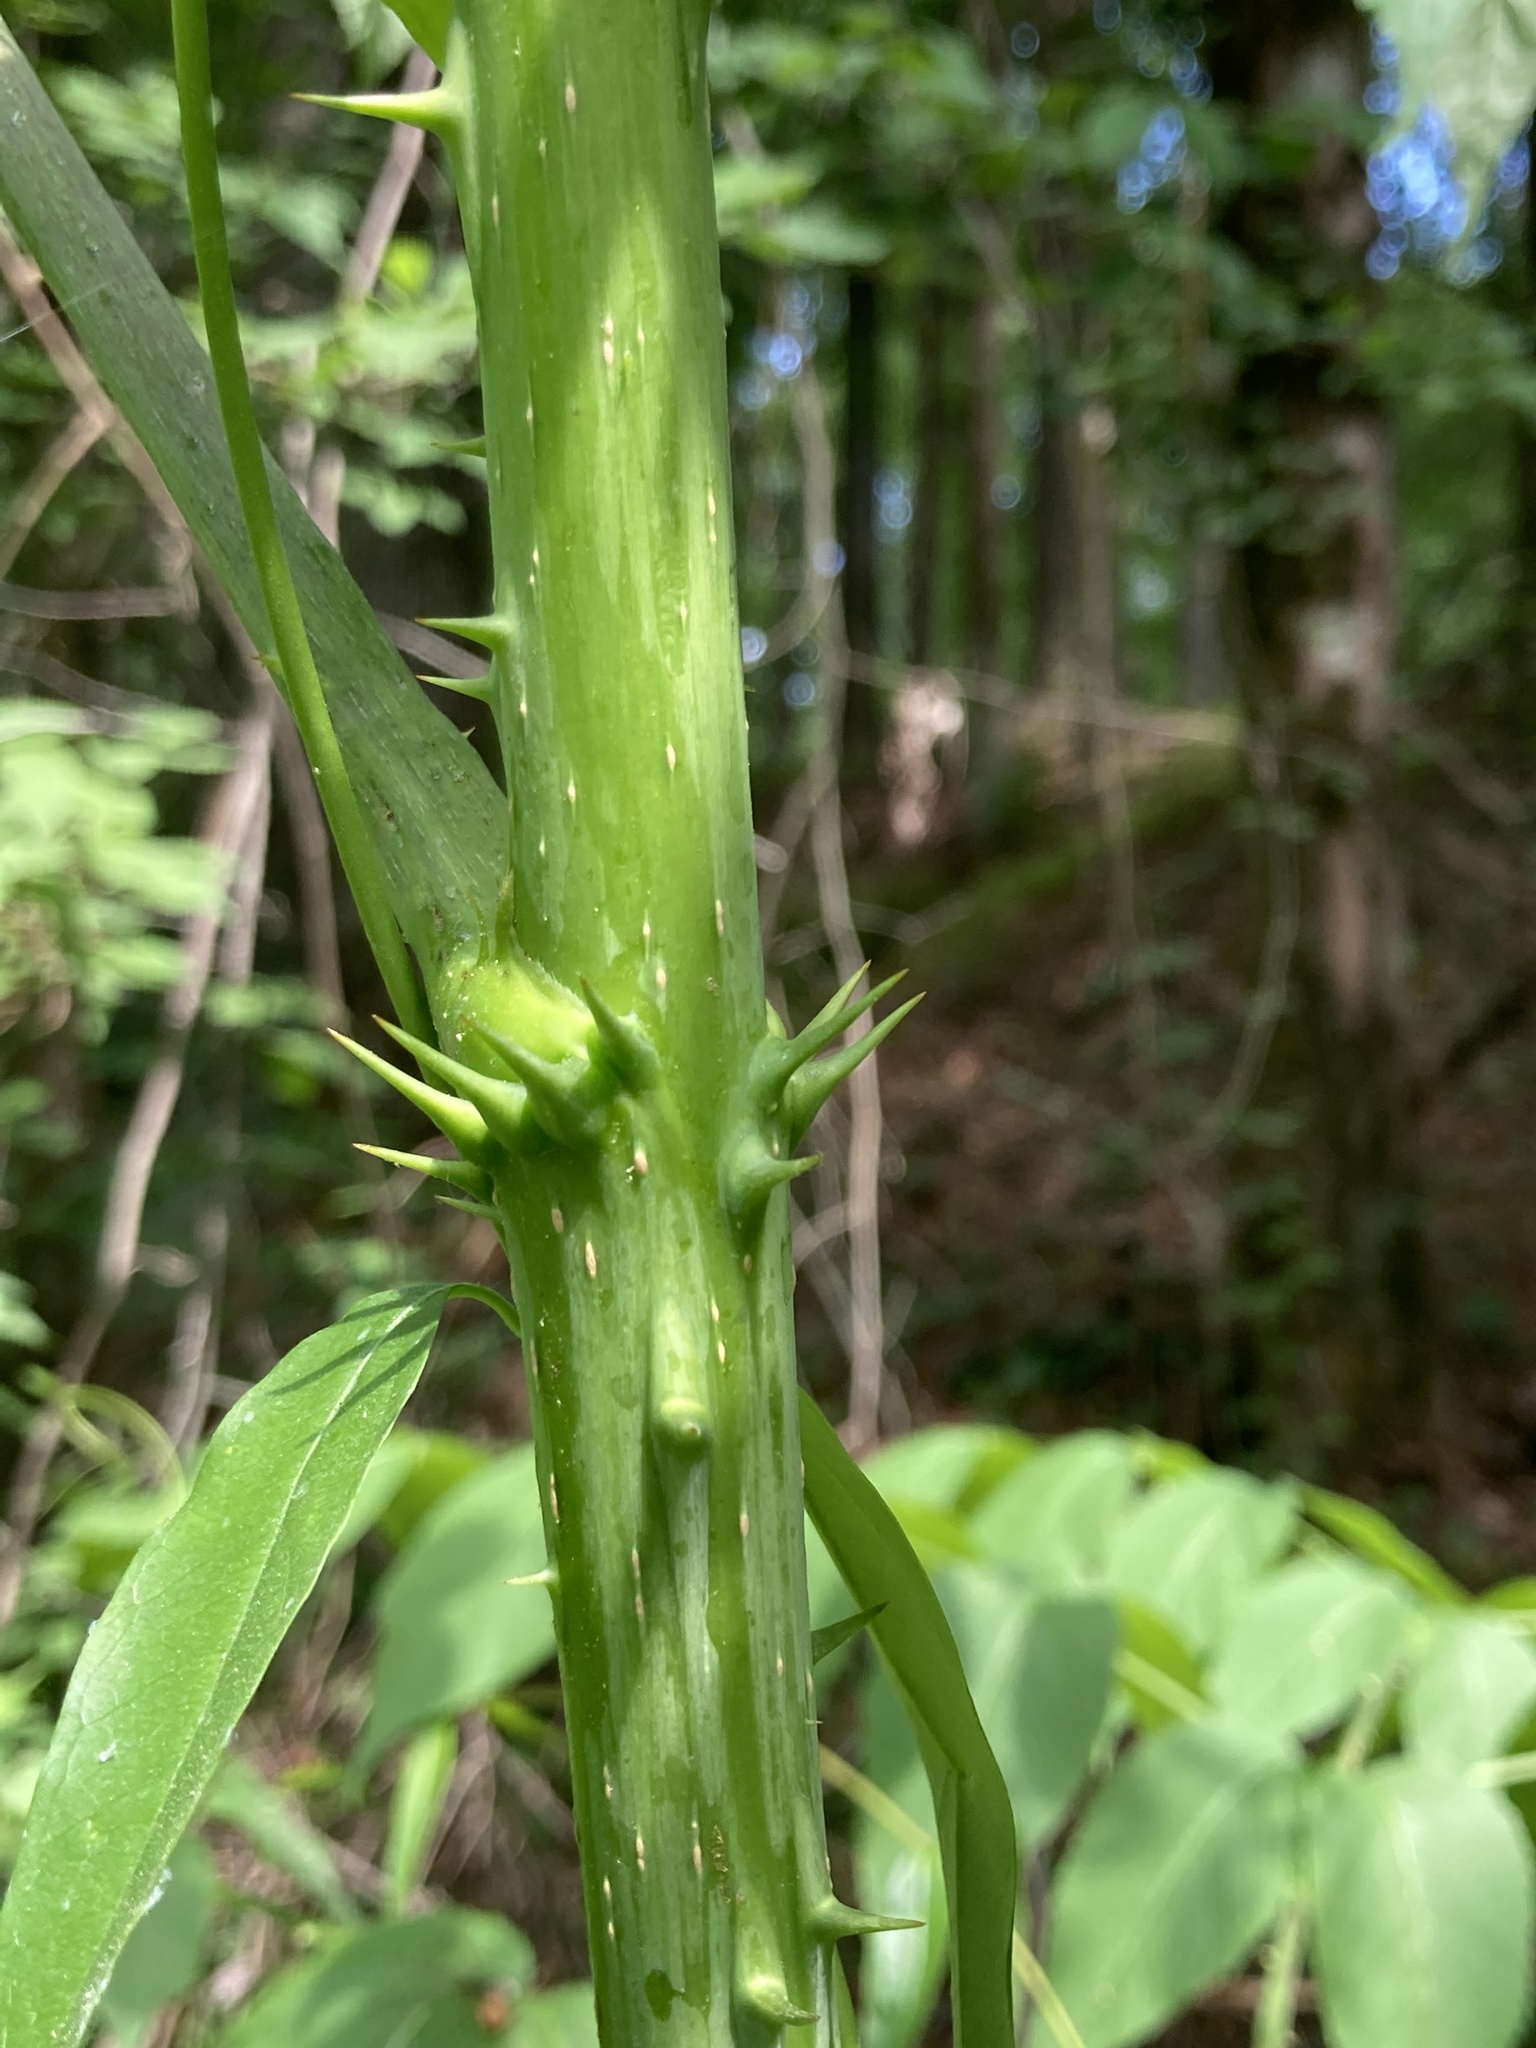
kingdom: Plantae
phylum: Tracheophyta
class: Magnoliopsida
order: Apiales
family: Araliaceae
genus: Aralia
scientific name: Aralia spinosa
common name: Hercules'-club
